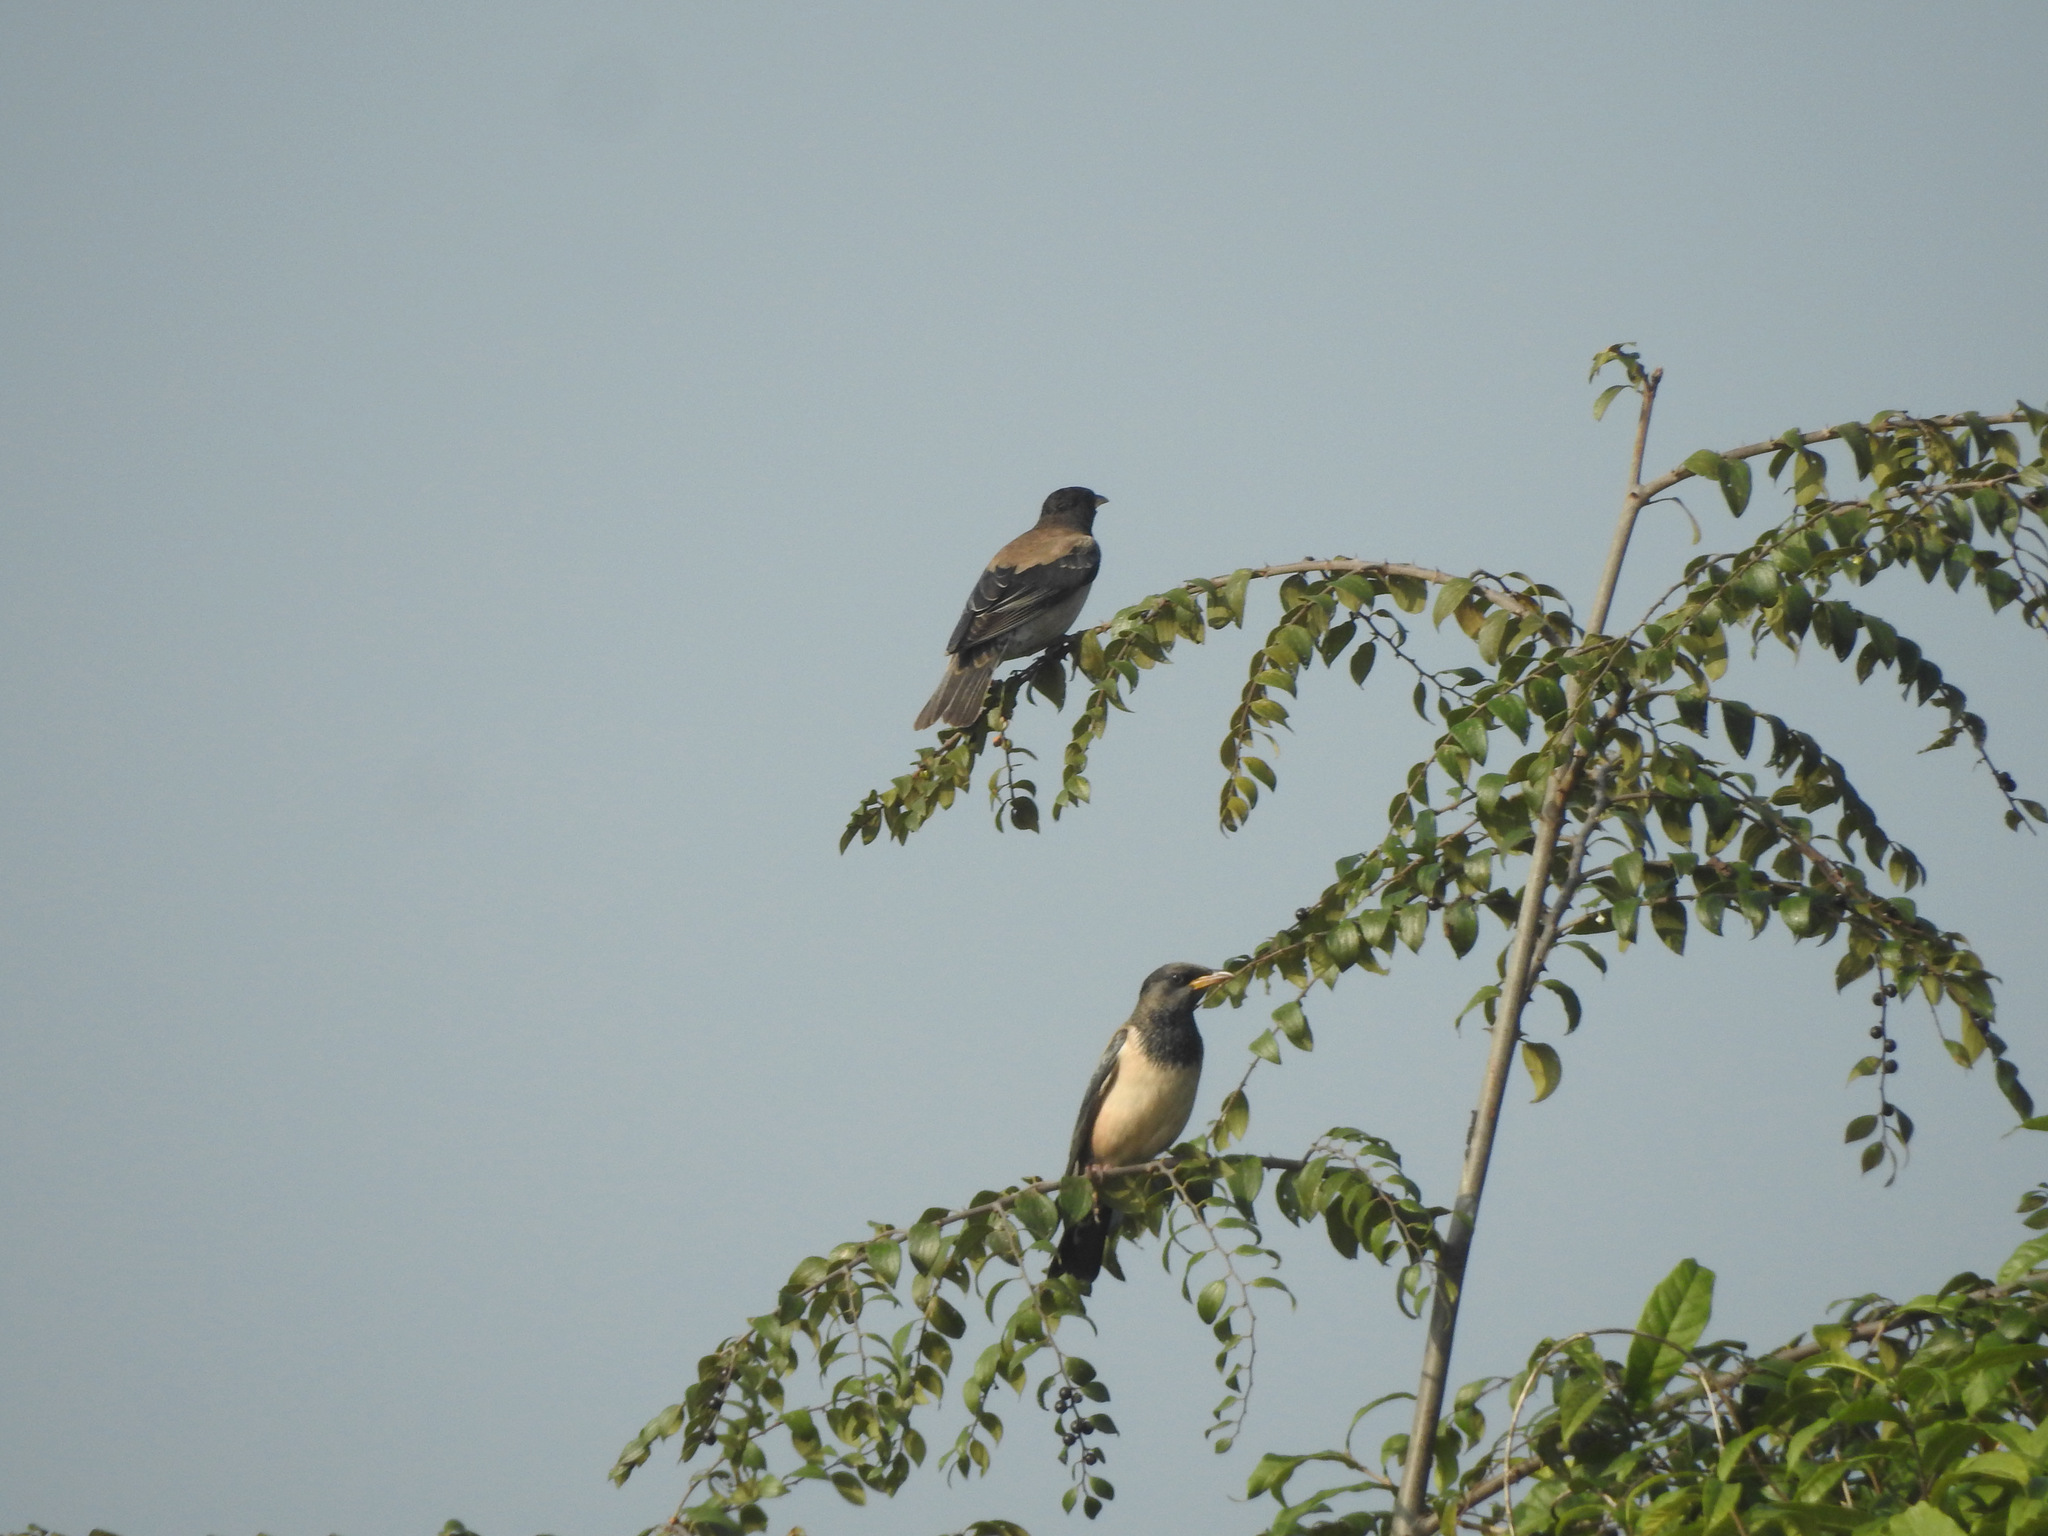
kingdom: Animalia
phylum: Chordata
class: Aves
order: Passeriformes
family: Sturnidae
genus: Pastor
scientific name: Pastor roseus
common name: Rosy starling
